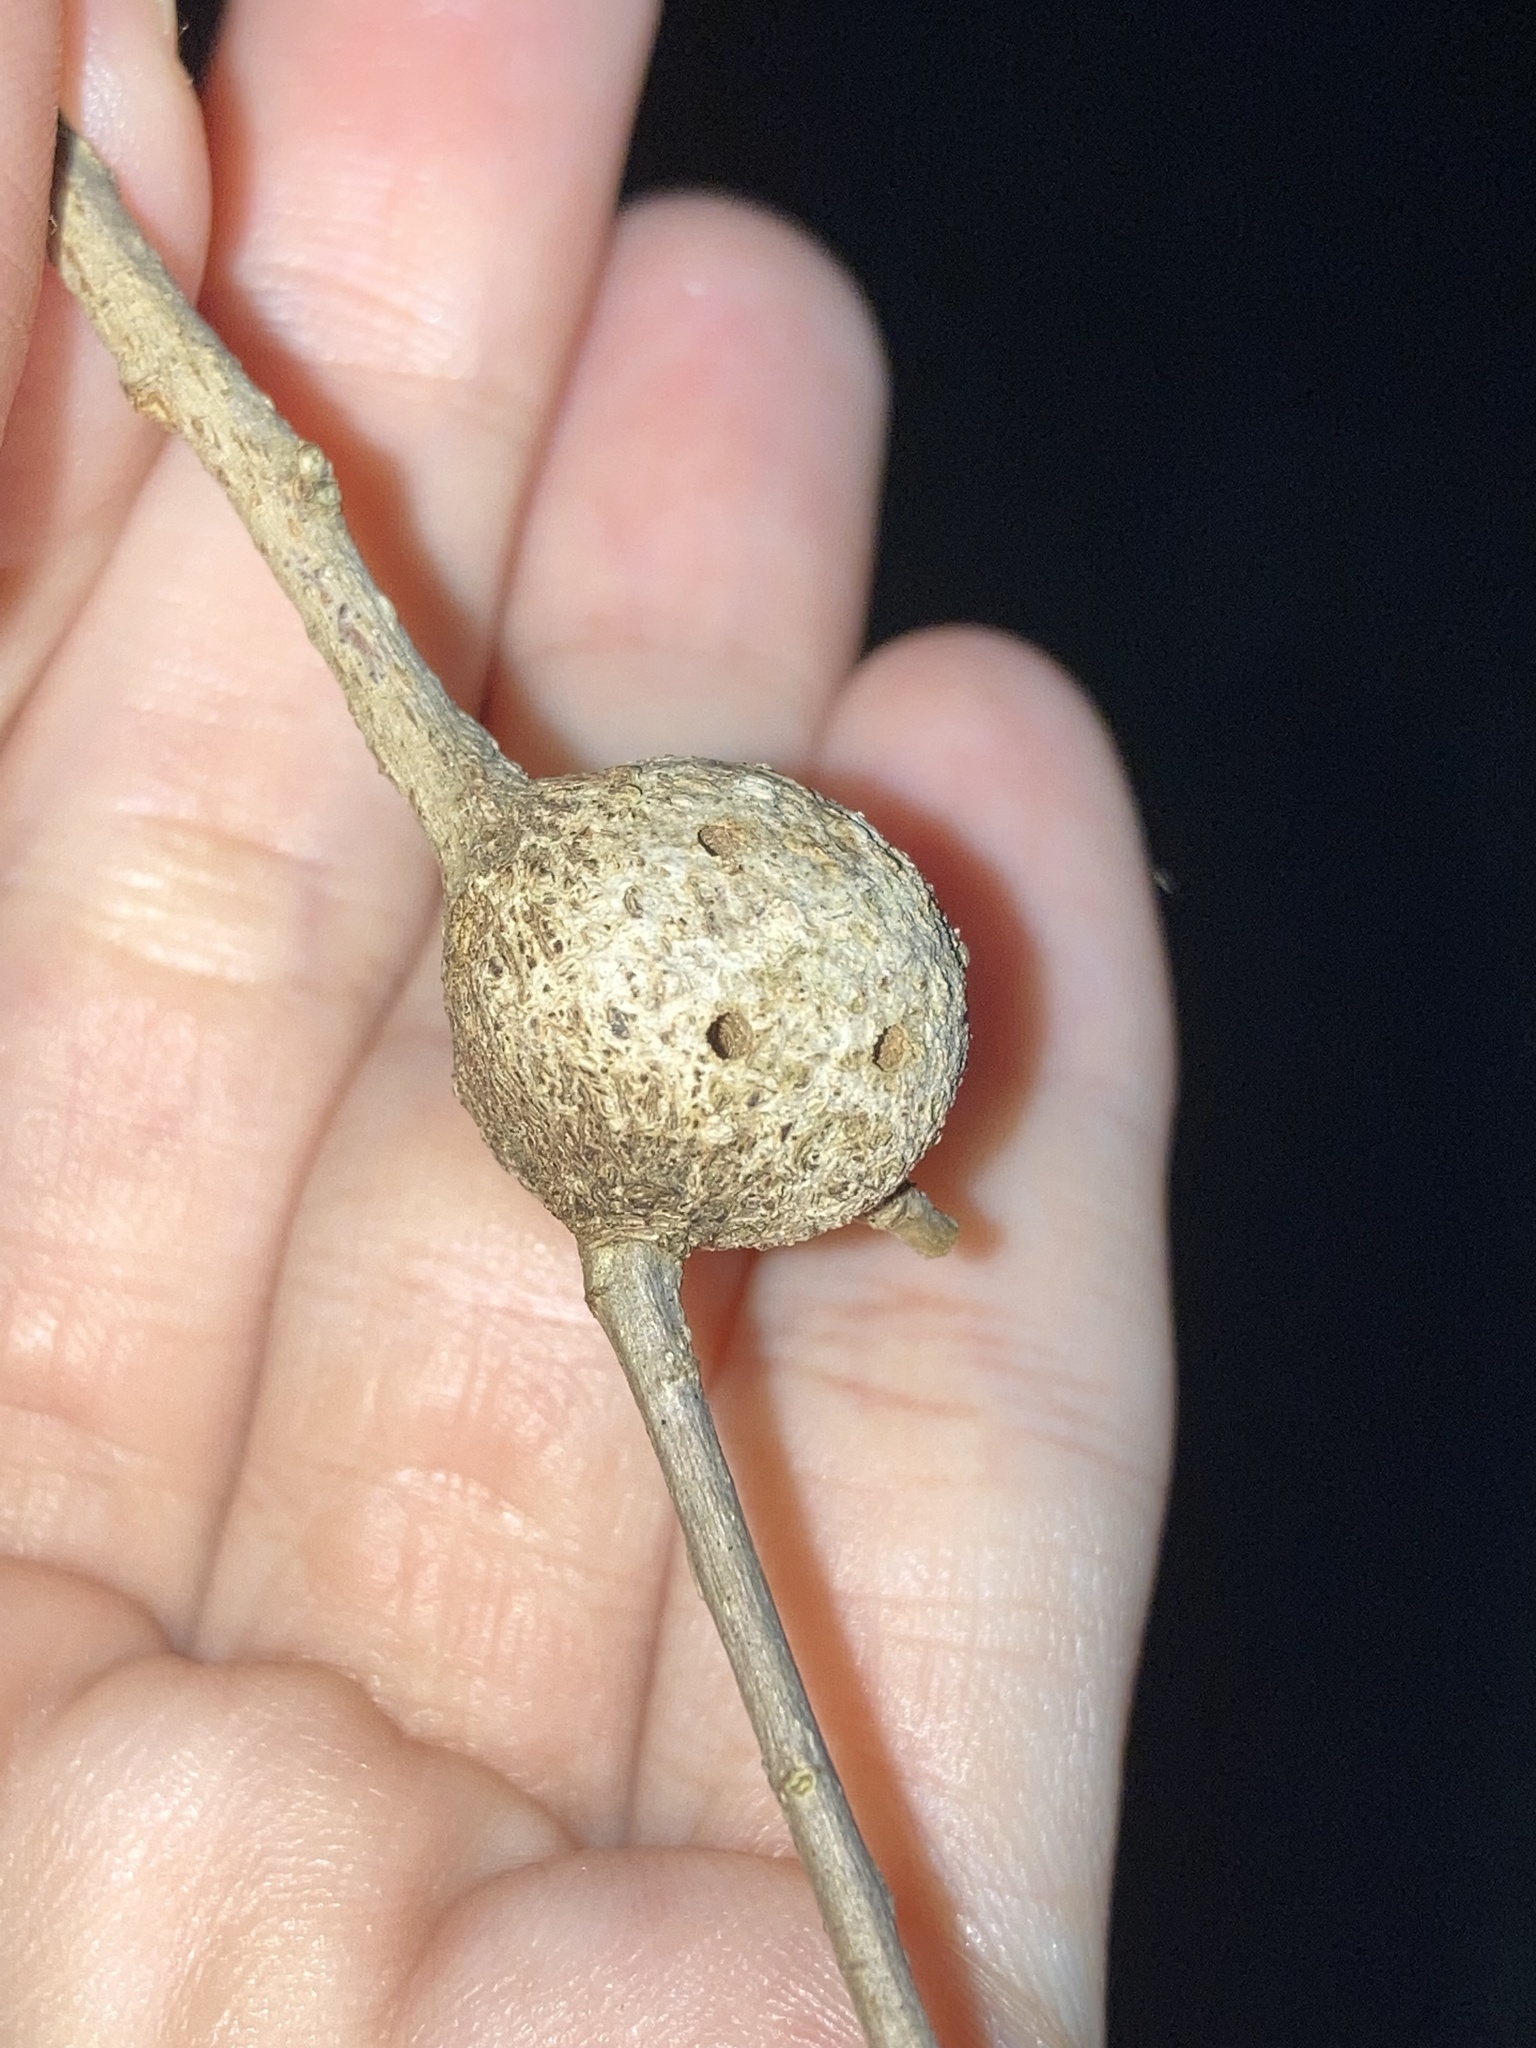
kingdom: Animalia
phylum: Arthropoda
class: Insecta
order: Hymenoptera
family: Cynipidae
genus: Callirhytis
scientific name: Callirhytis
